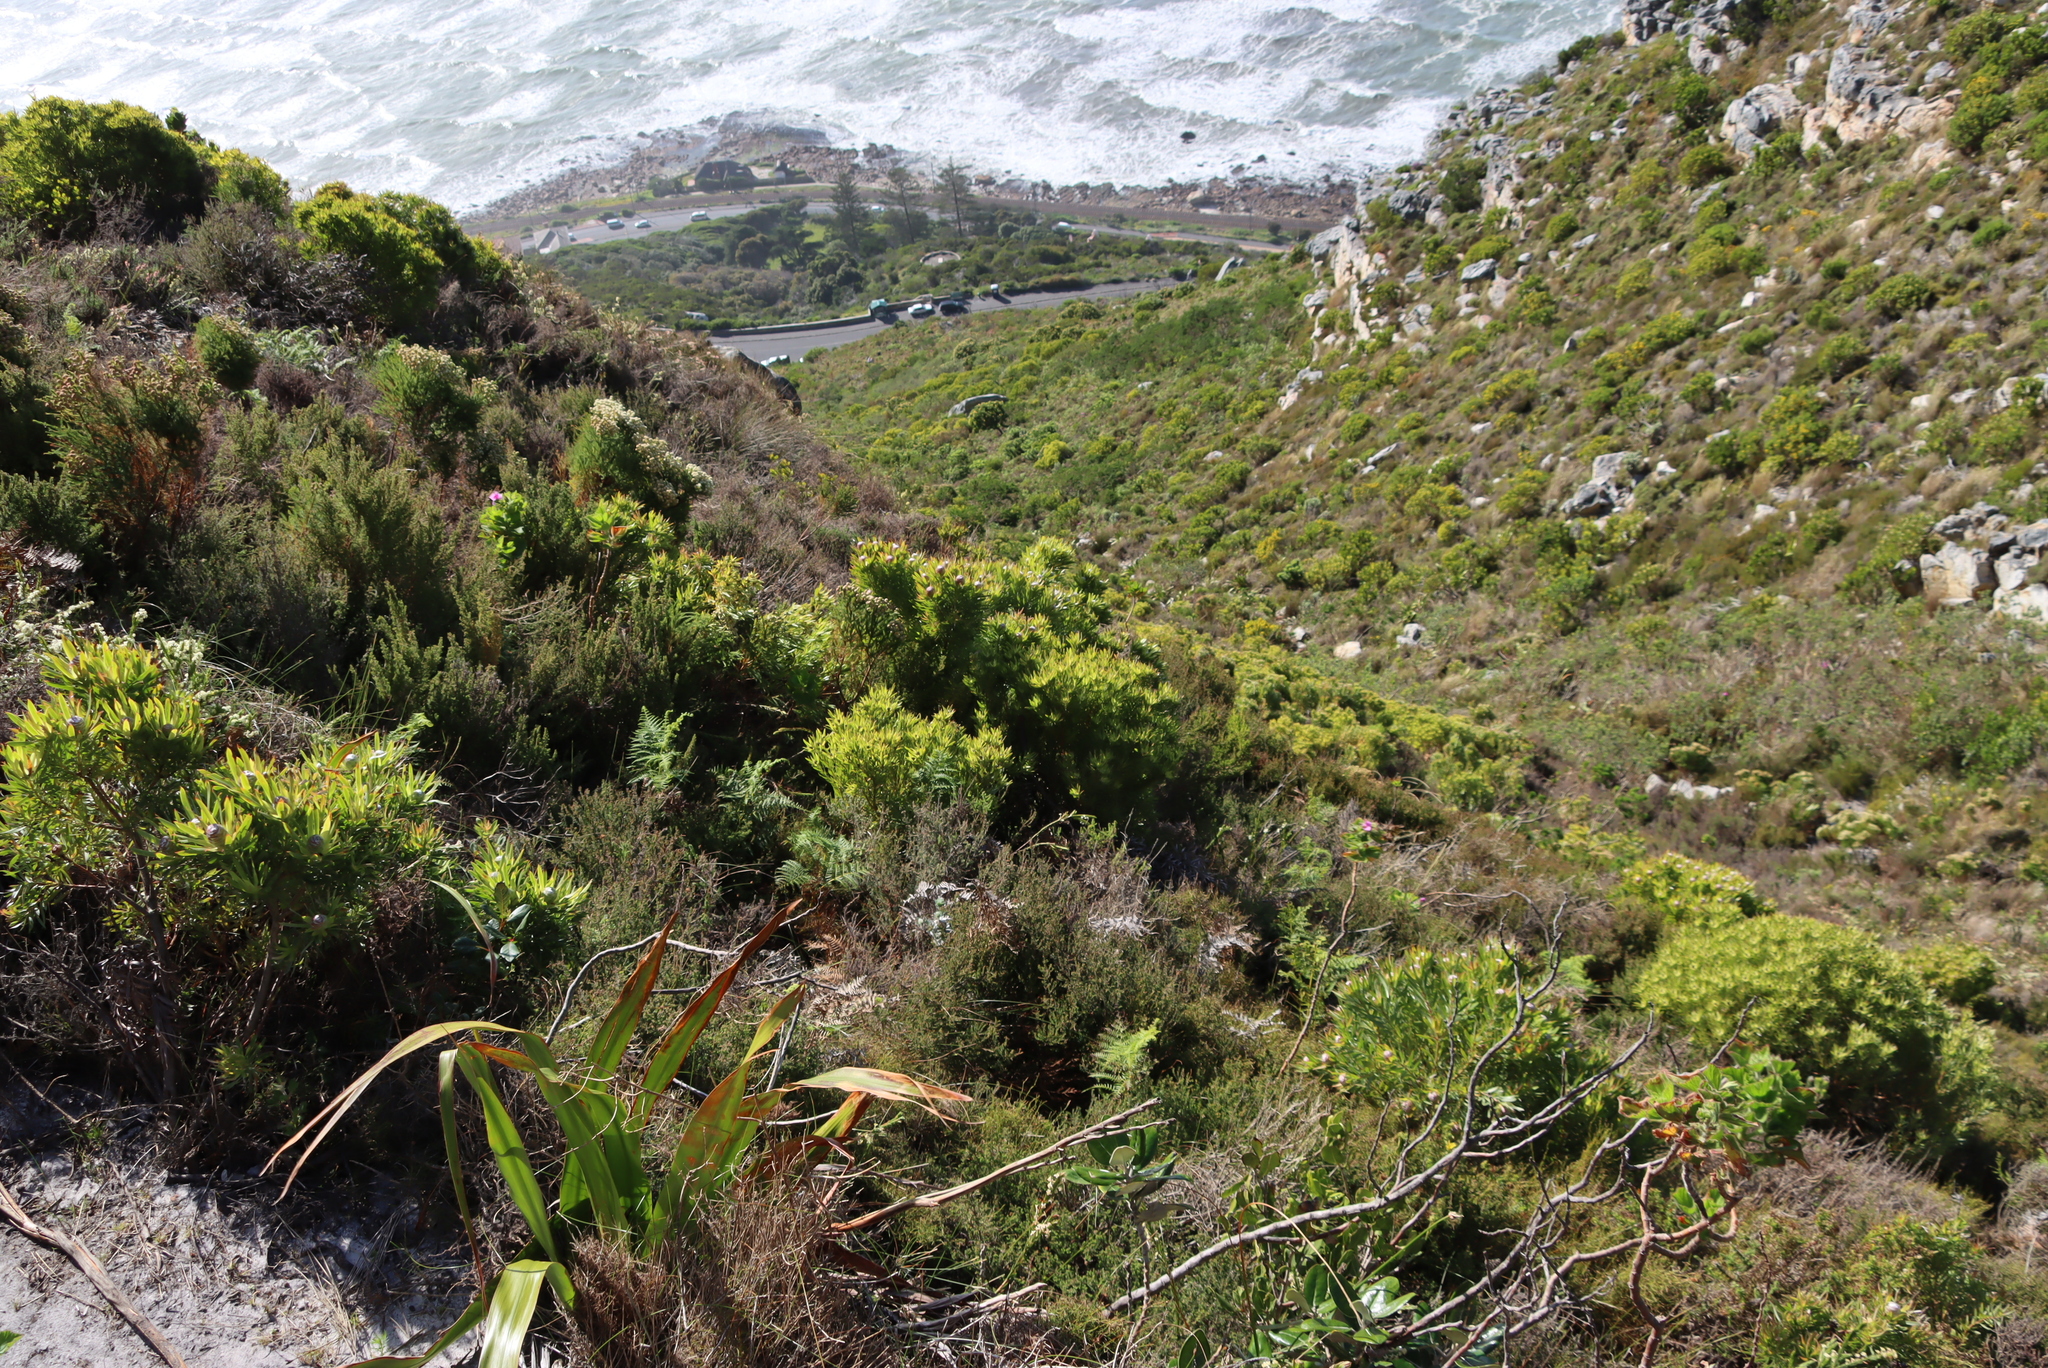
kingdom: Plantae
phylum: Tracheophyta
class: Magnoliopsida
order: Proteales
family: Proteaceae
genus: Leucadendron
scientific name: Leucadendron xanthoconus
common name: Sickle-leaf conebush
